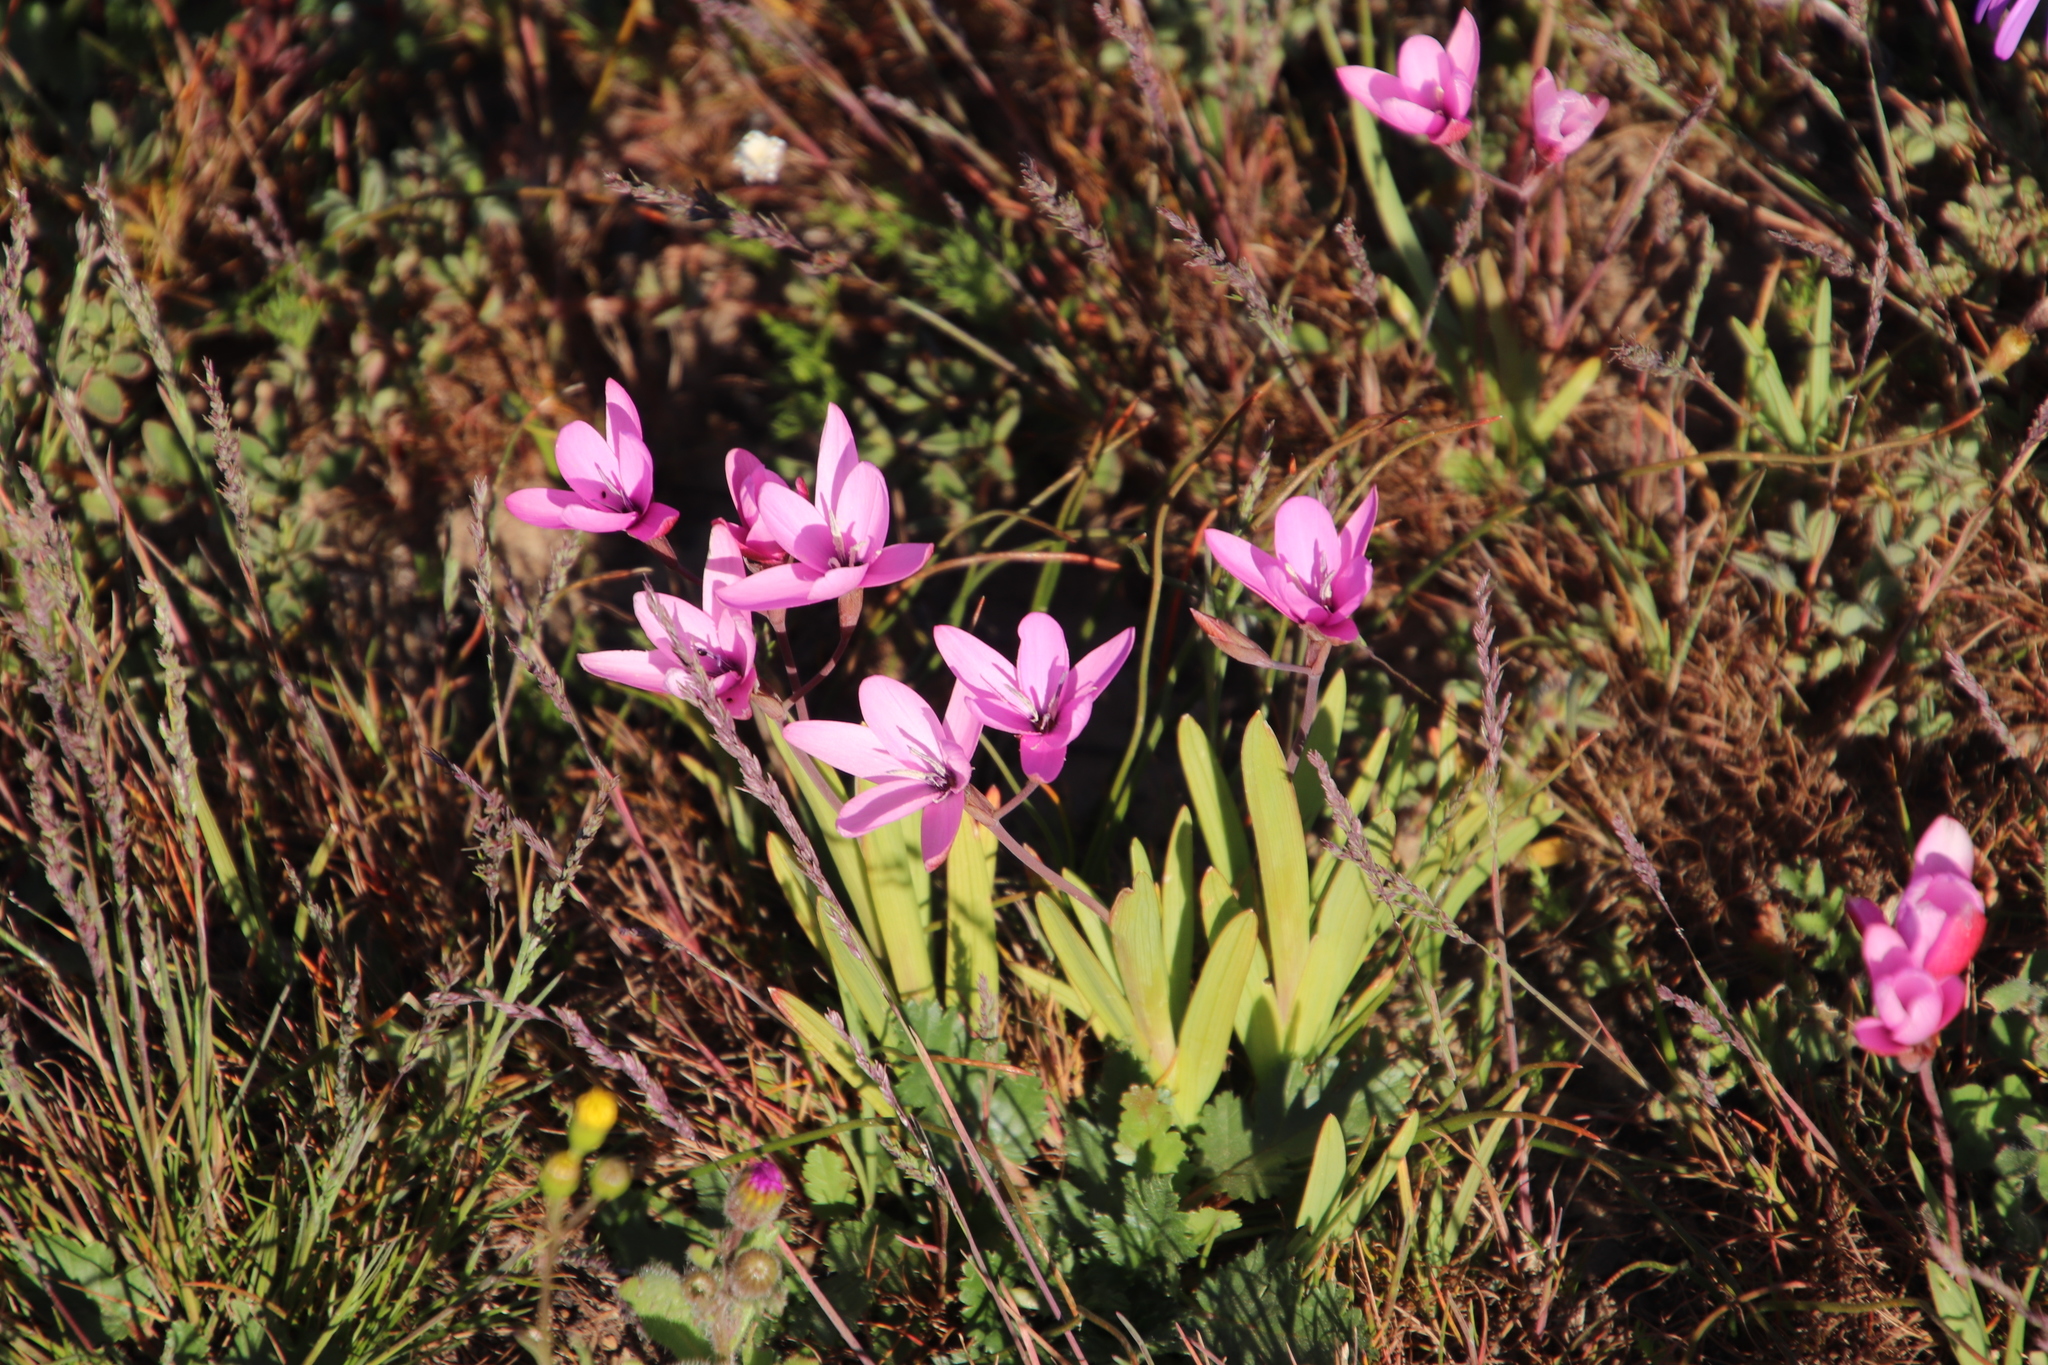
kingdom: Plantae
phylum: Tracheophyta
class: Liliopsida
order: Asparagales
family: Iridaceae
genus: Hesperantha
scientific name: Hesperantha pauciflora
